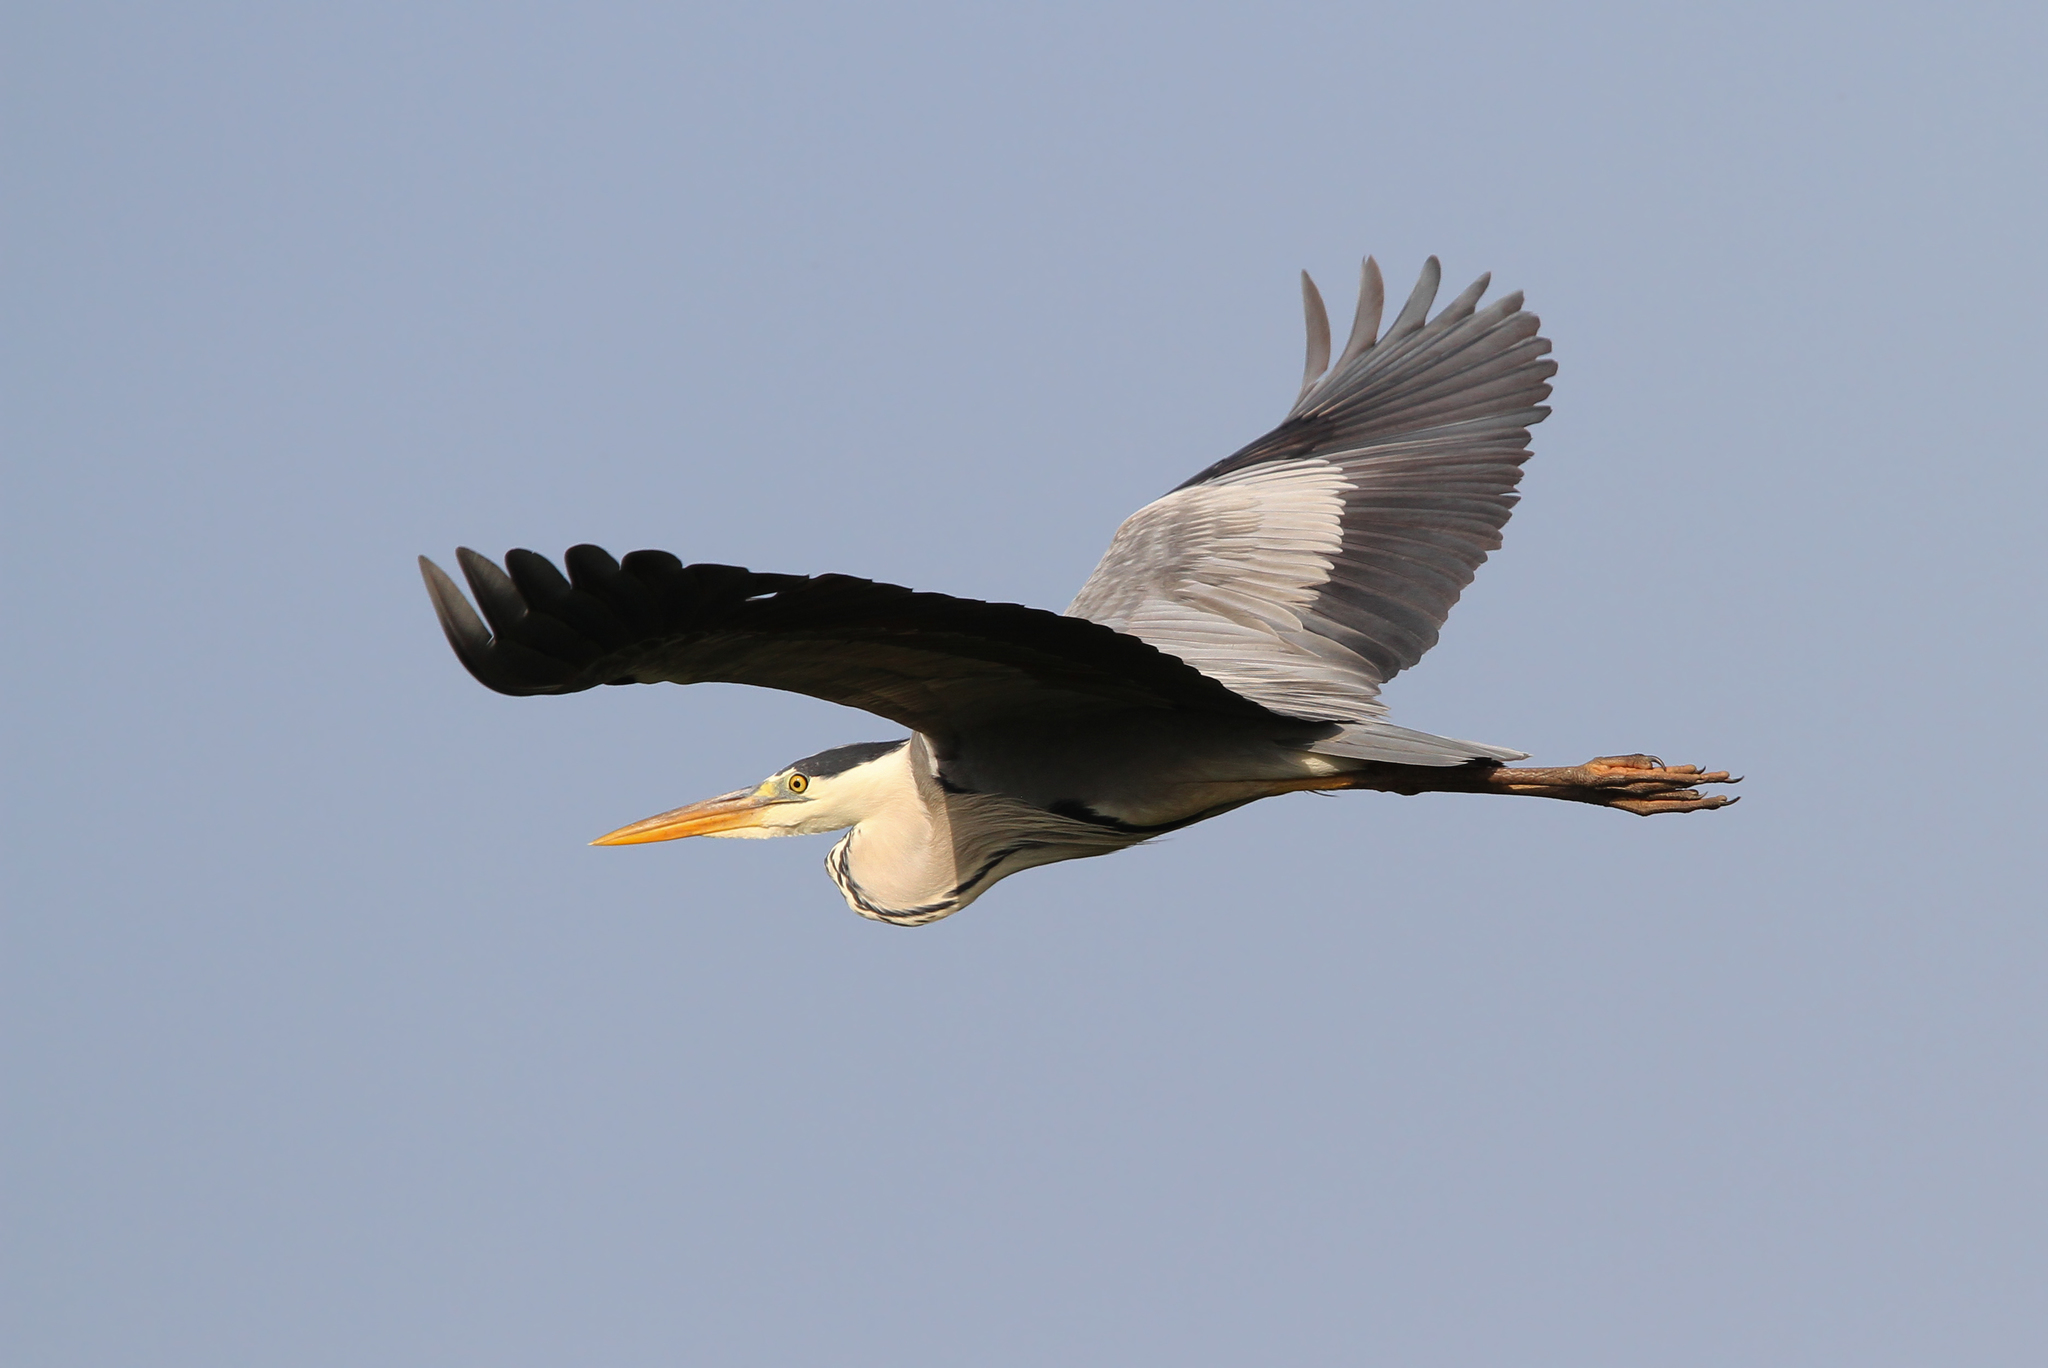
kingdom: Animalia
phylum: Chordata
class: Aves
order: Pelecaniformes
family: Ardeidae
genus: Ardea
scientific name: Ardea cinerea
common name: Grey heron
